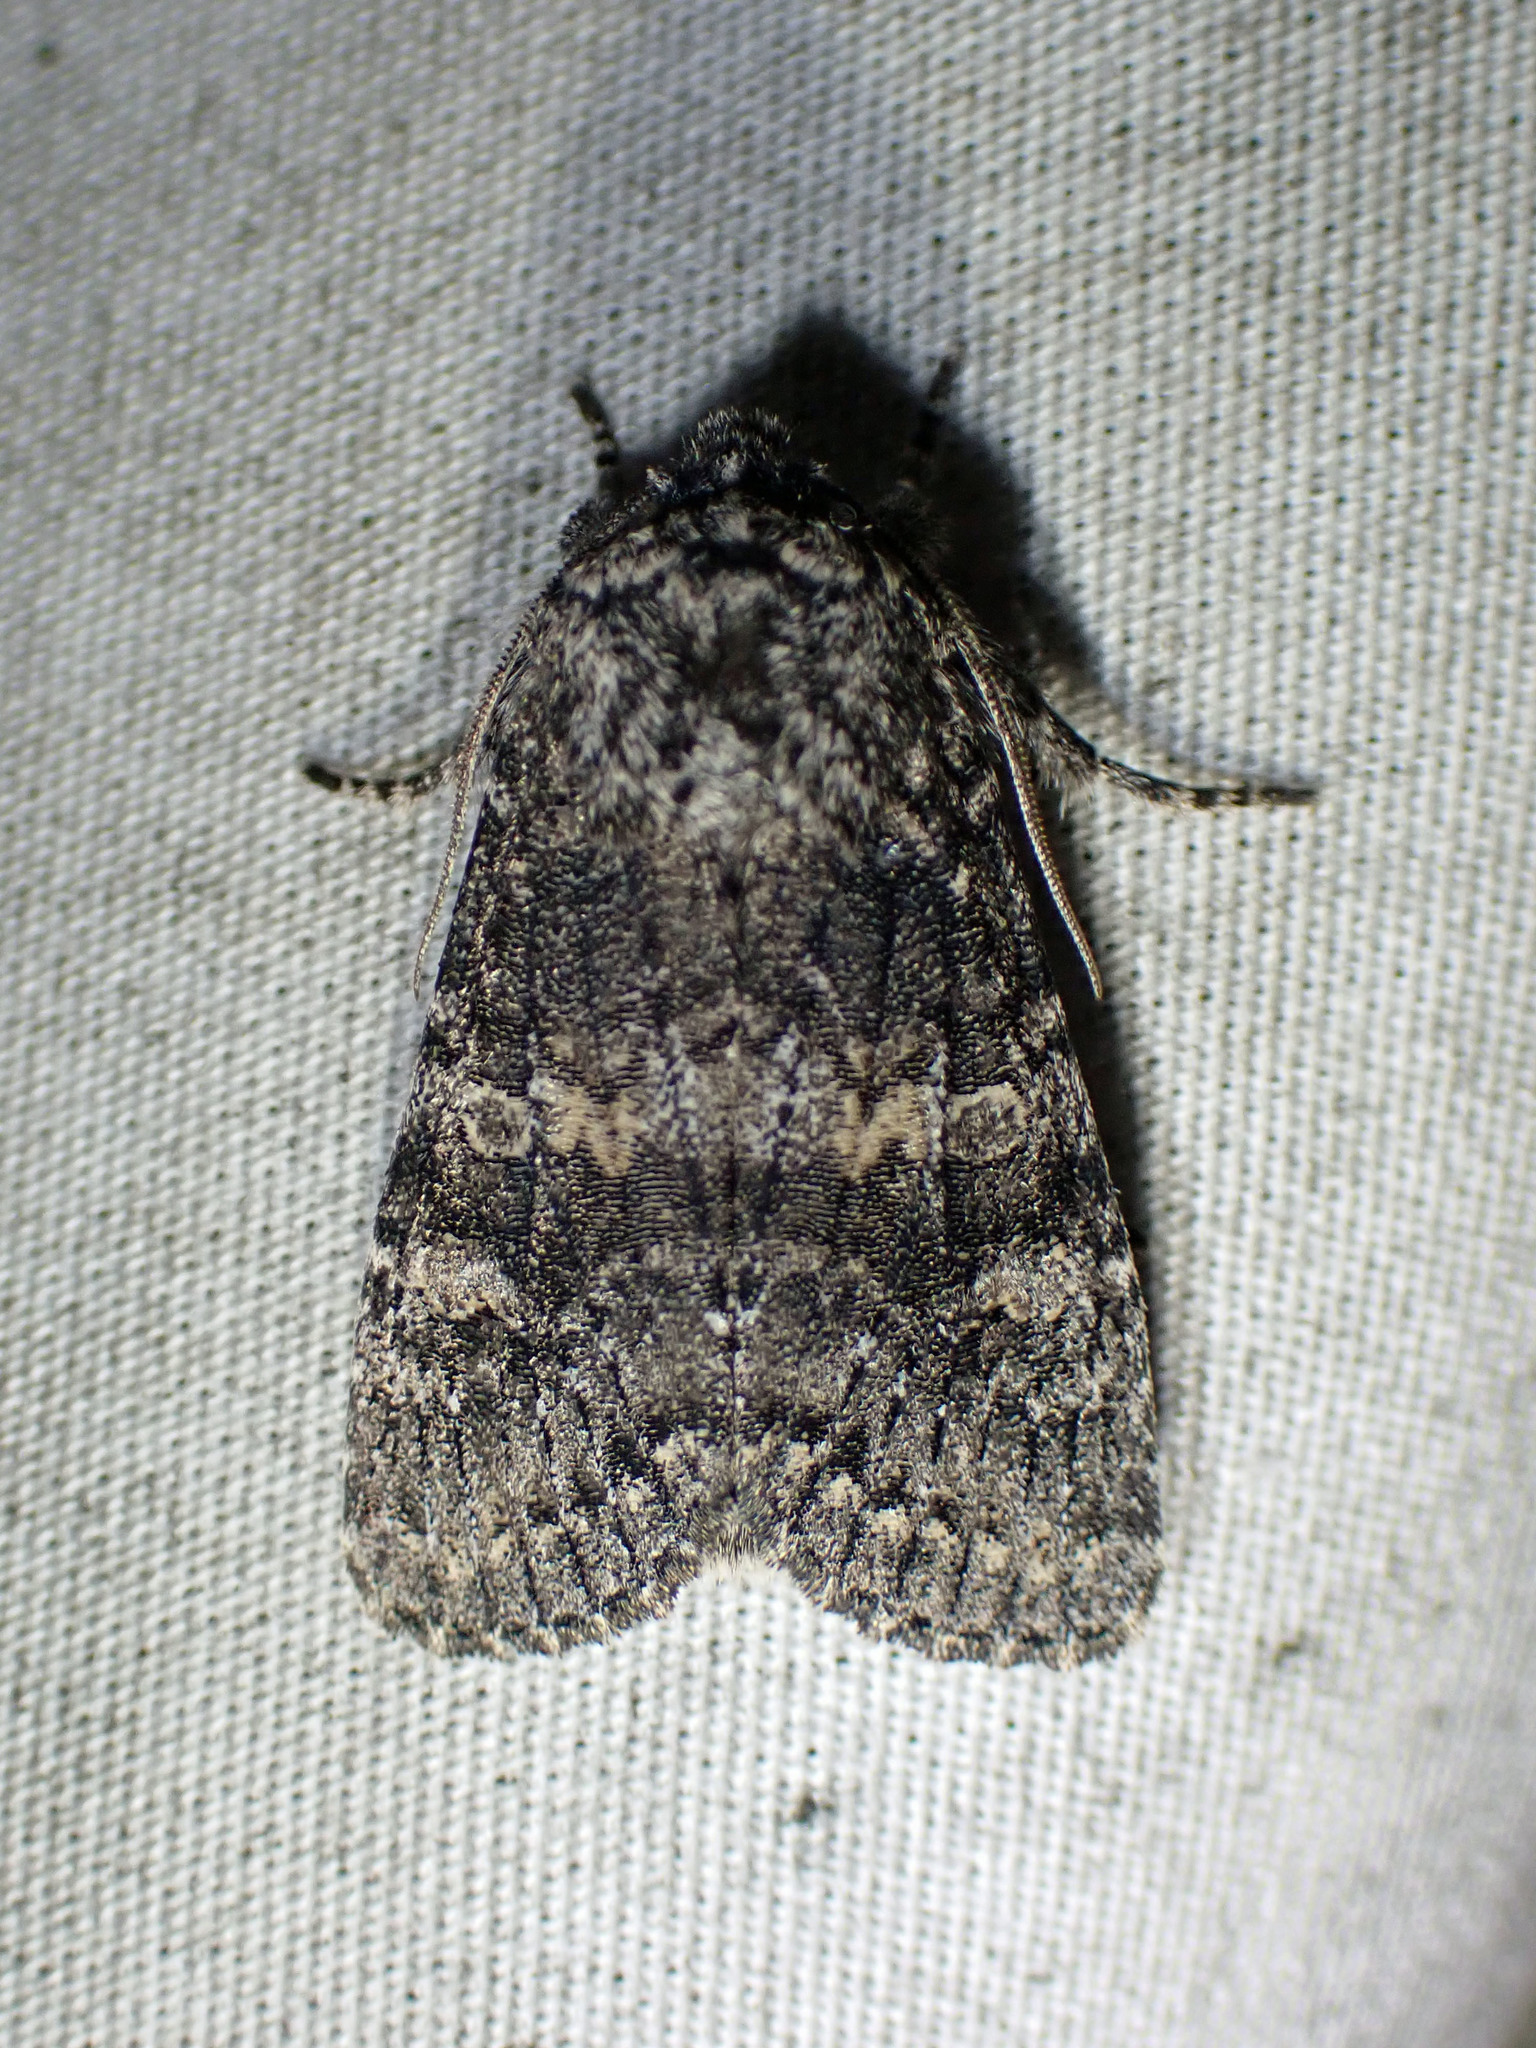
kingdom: Animalia
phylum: Arthropoda
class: Insecta
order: Lepidoptera
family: Noctuidae
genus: Egira
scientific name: Egira dolosa
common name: Lined black aspen cat.
